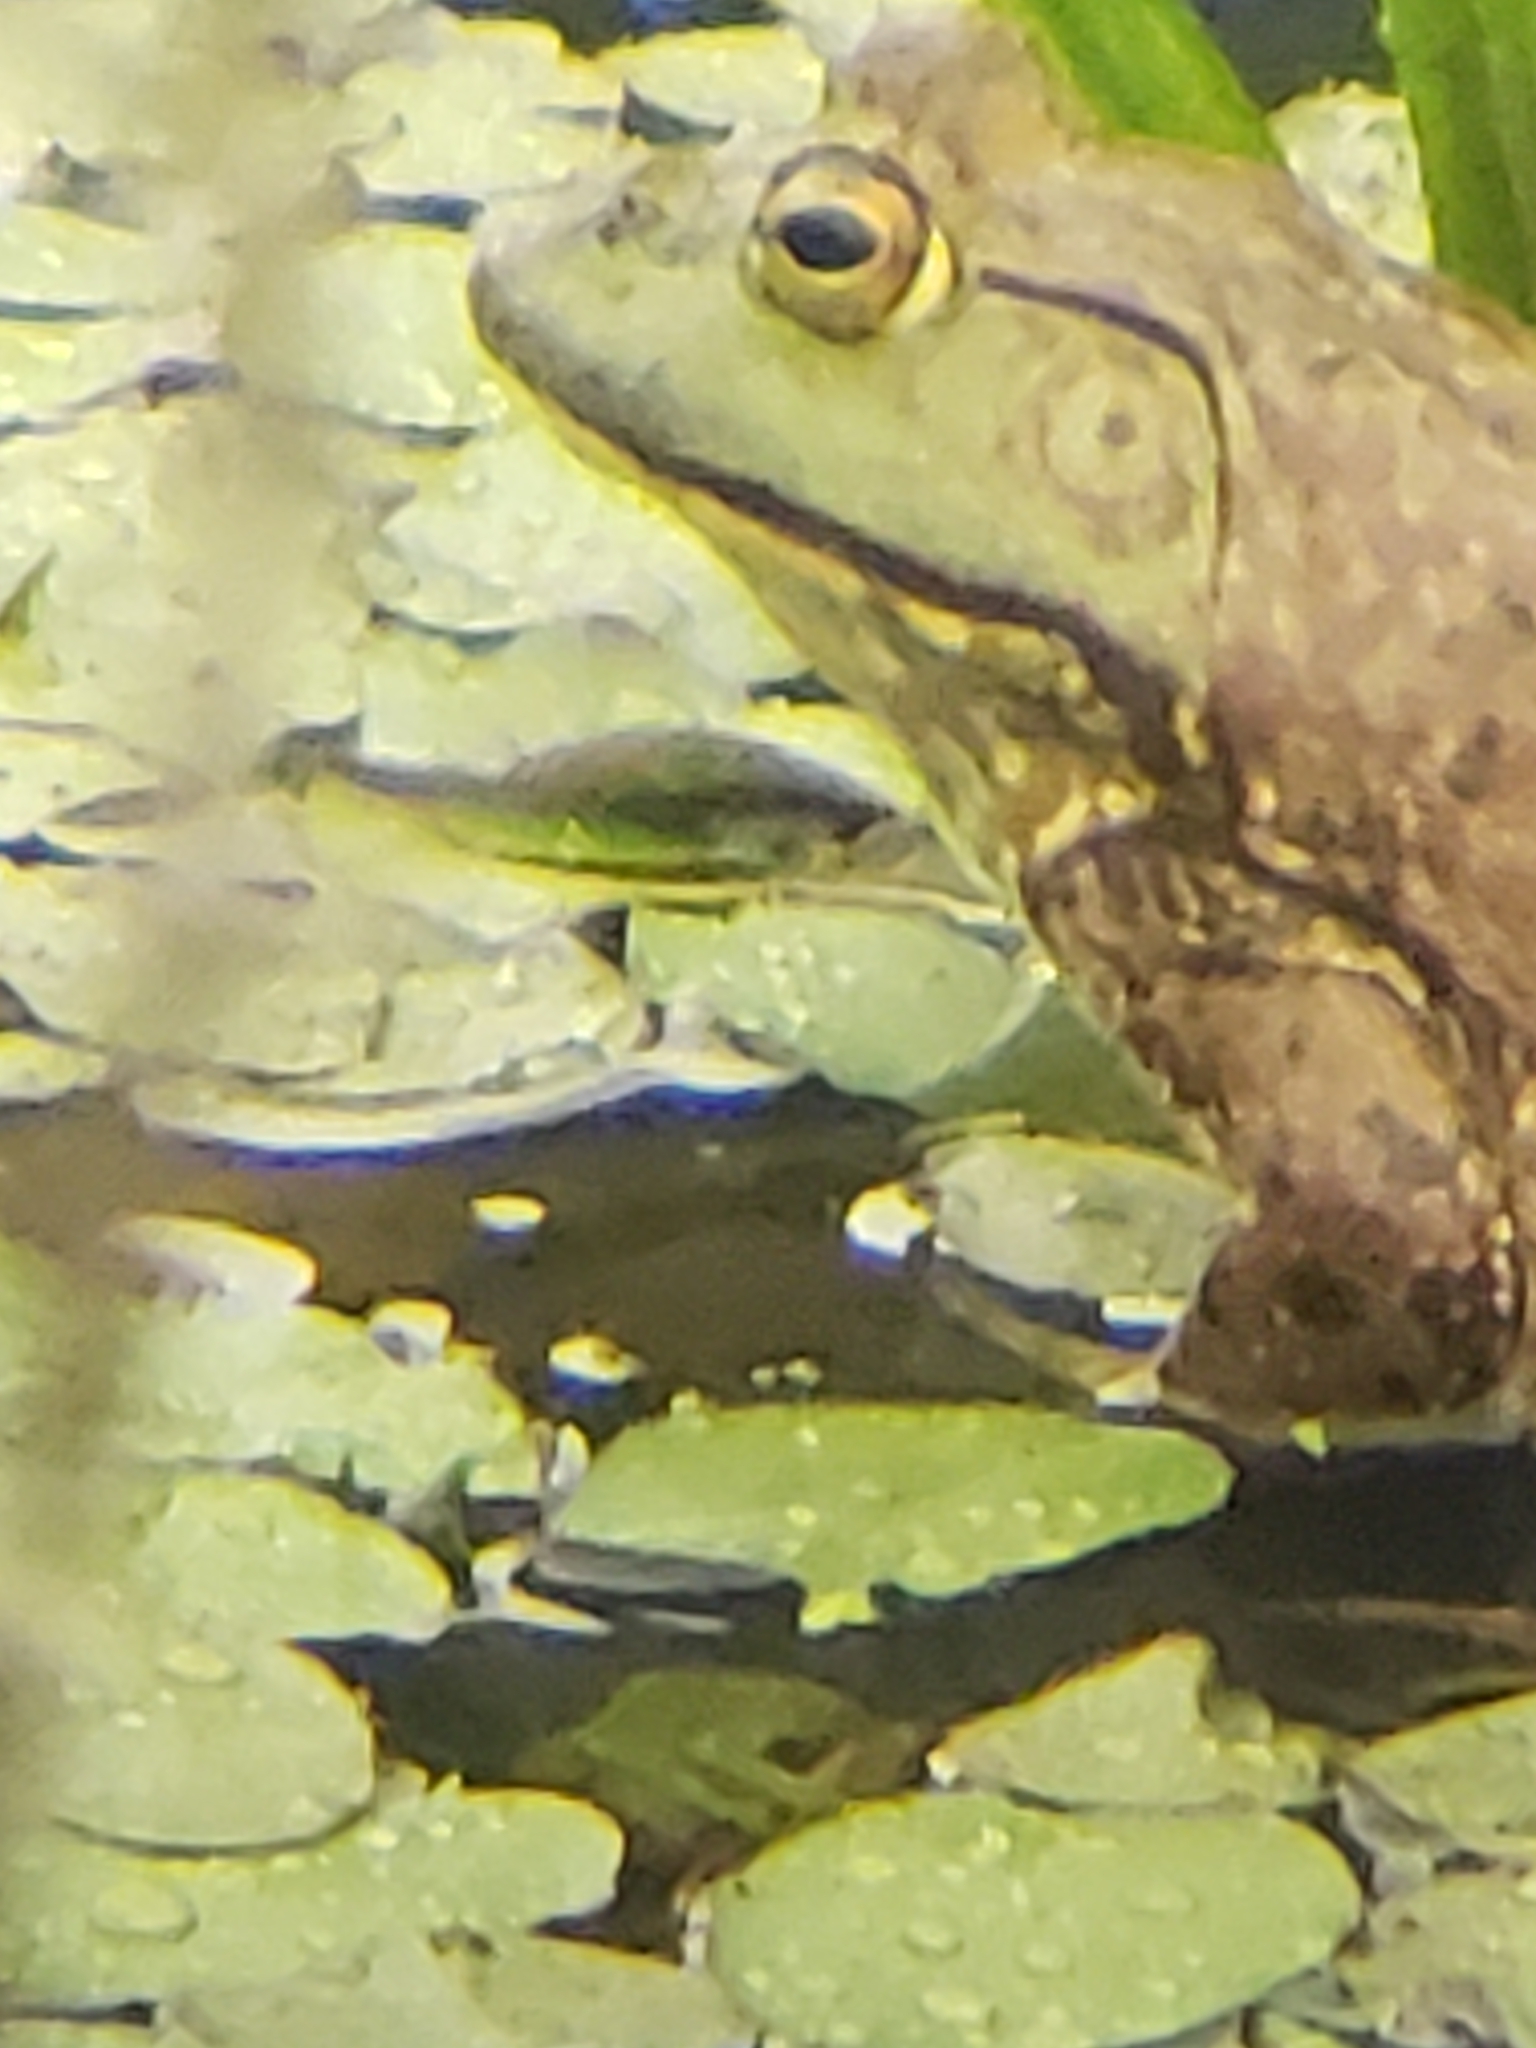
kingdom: Animalia
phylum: Chordata
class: Amphibia
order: Anura
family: Ranidae
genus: Lithobates
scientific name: Lithobates catesbeianus
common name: American bullfrog
